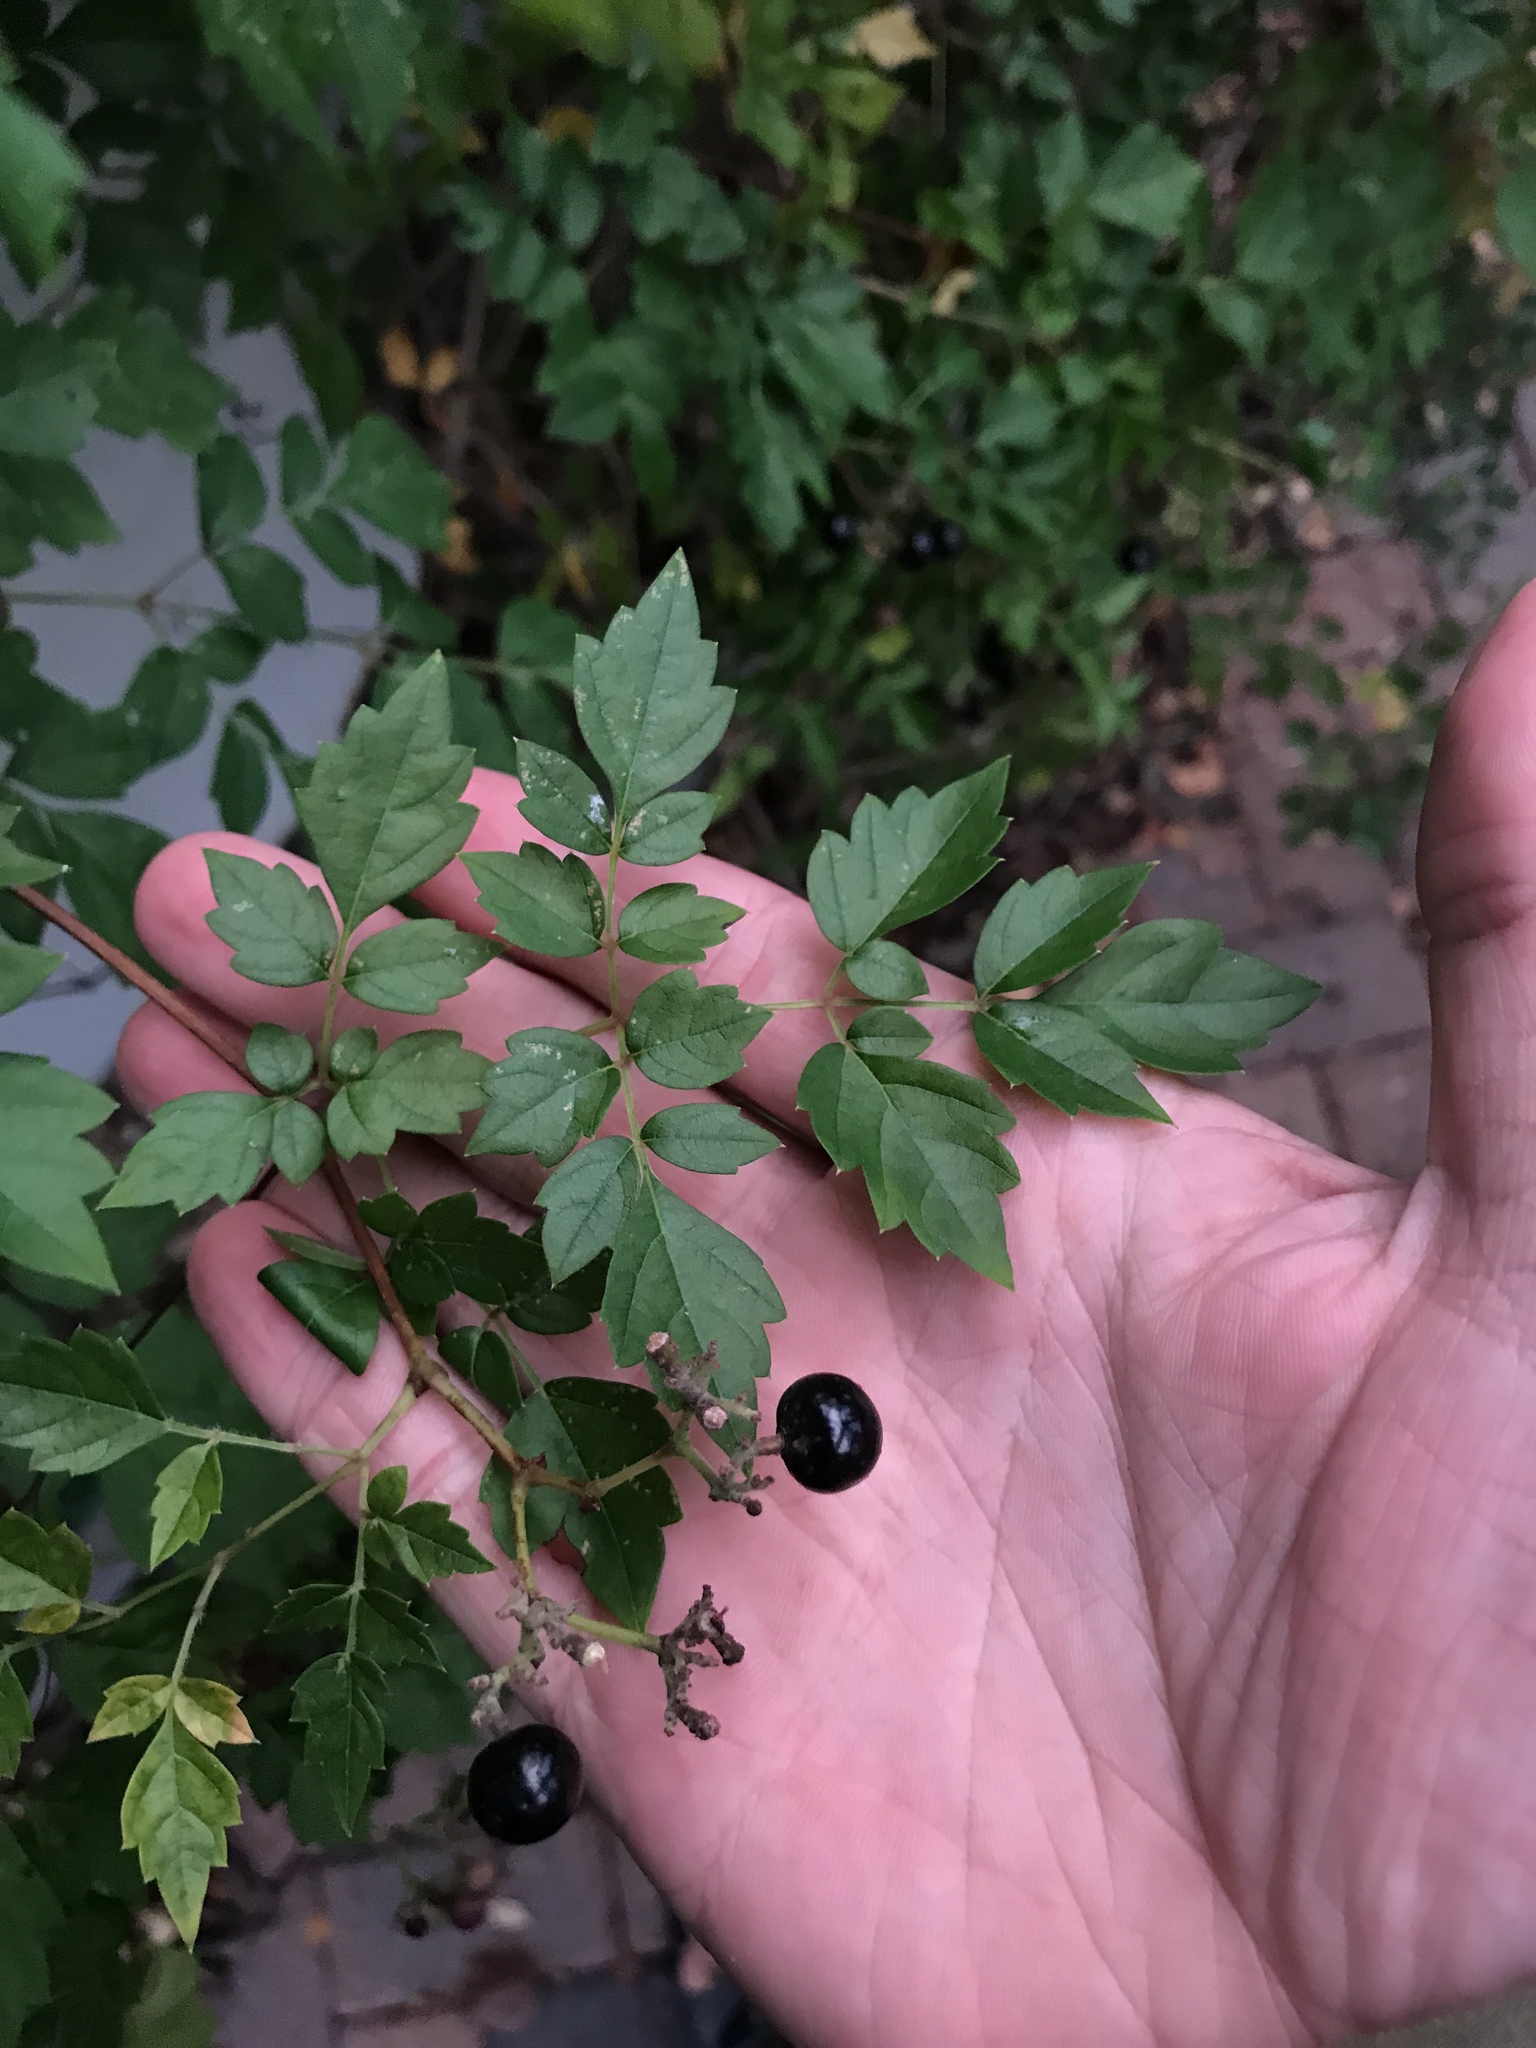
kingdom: Plantae
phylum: Tracheophyta
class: Magnoliopsida
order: Vitales
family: Vitaceae
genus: Nekemias
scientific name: Nekemias arborea
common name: Peppervine
